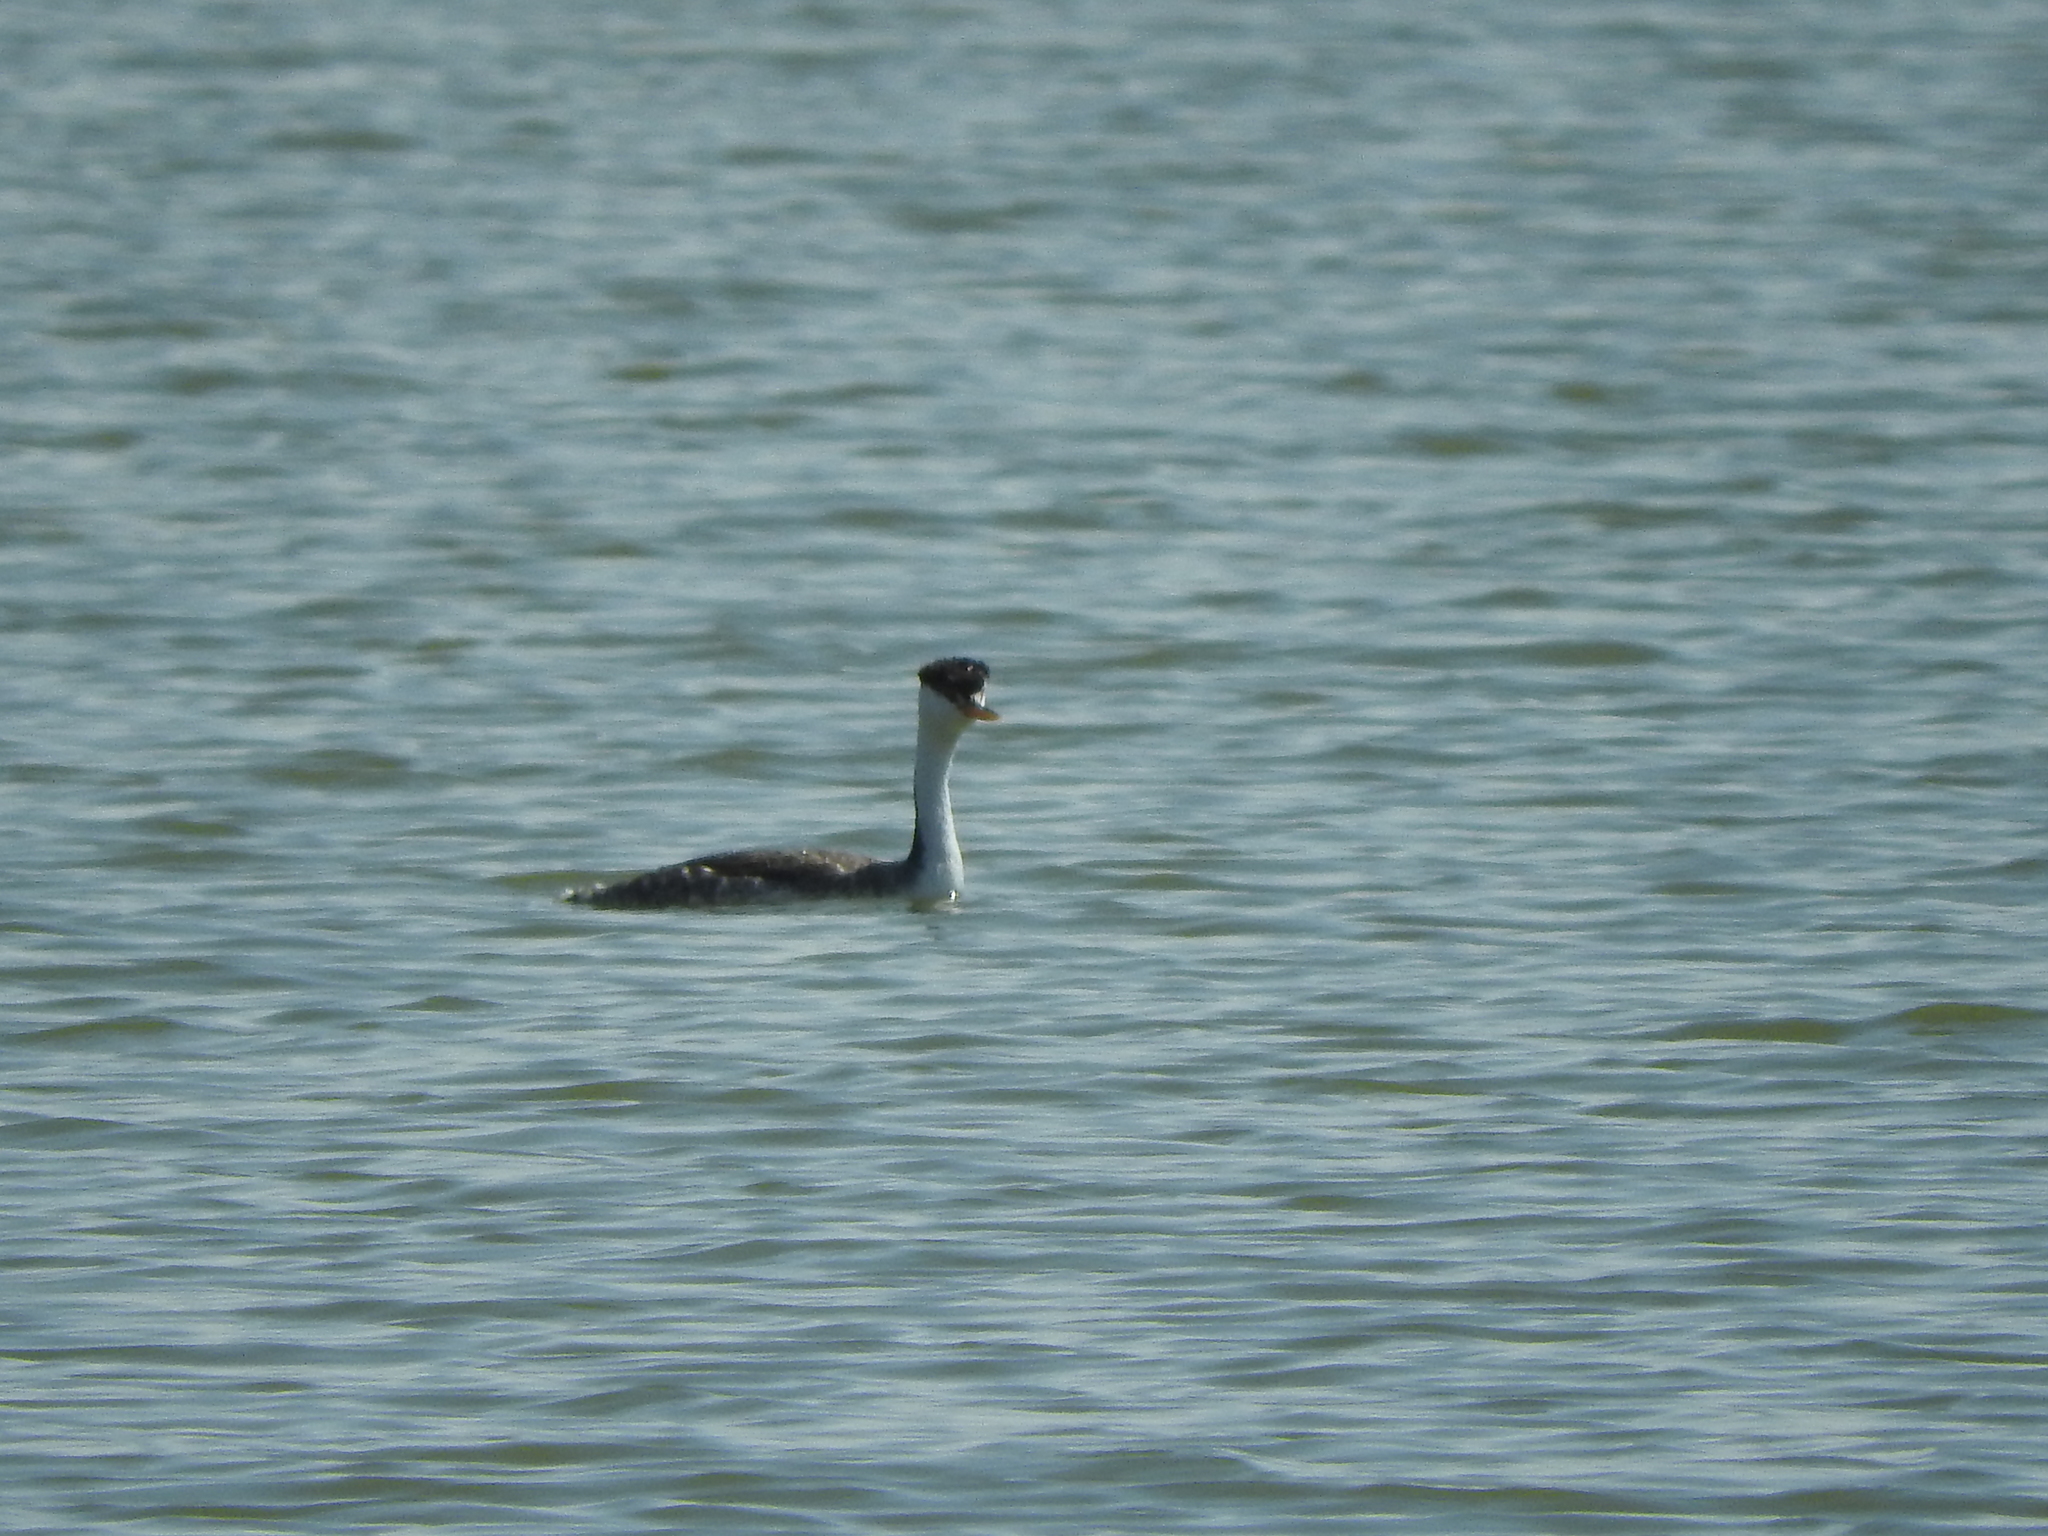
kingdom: Animalia
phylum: Chordata
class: Aves
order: Podicipediformes
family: Podicipedidae
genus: Aechmophorus
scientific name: Aechmophorus clarkii
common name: Clark's grebe
